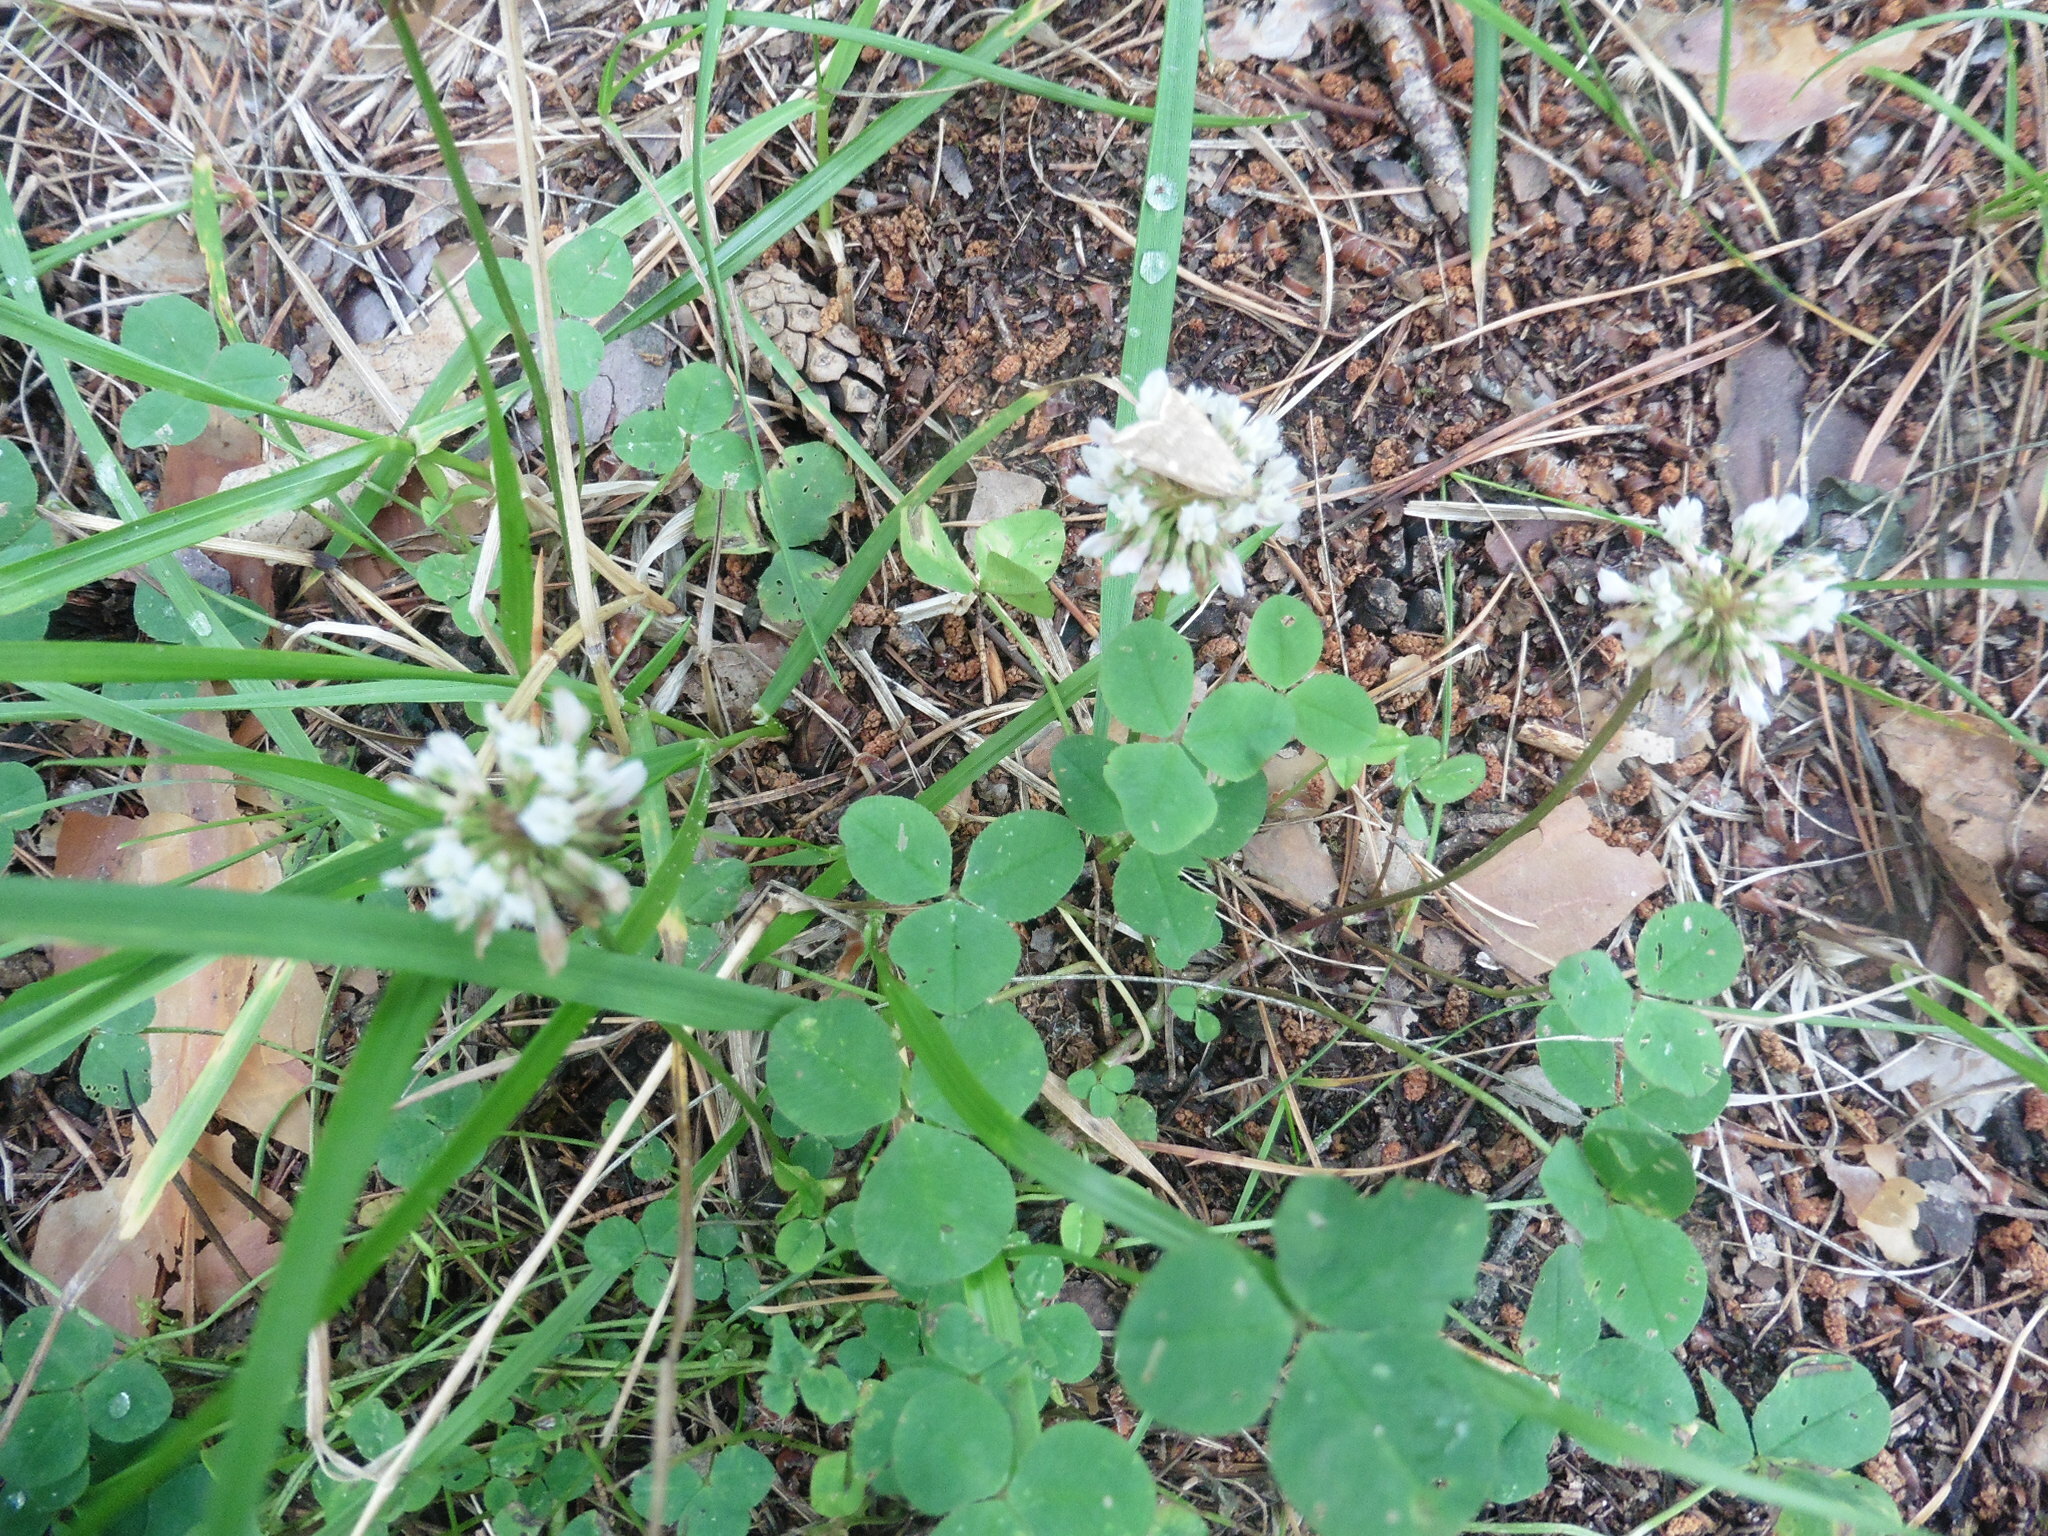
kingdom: Plantae
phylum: Tracheophyta
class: Magnoliopsida
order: Fabales
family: Fabaceae
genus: Trifolium
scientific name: Trifolium repens
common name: White clover
